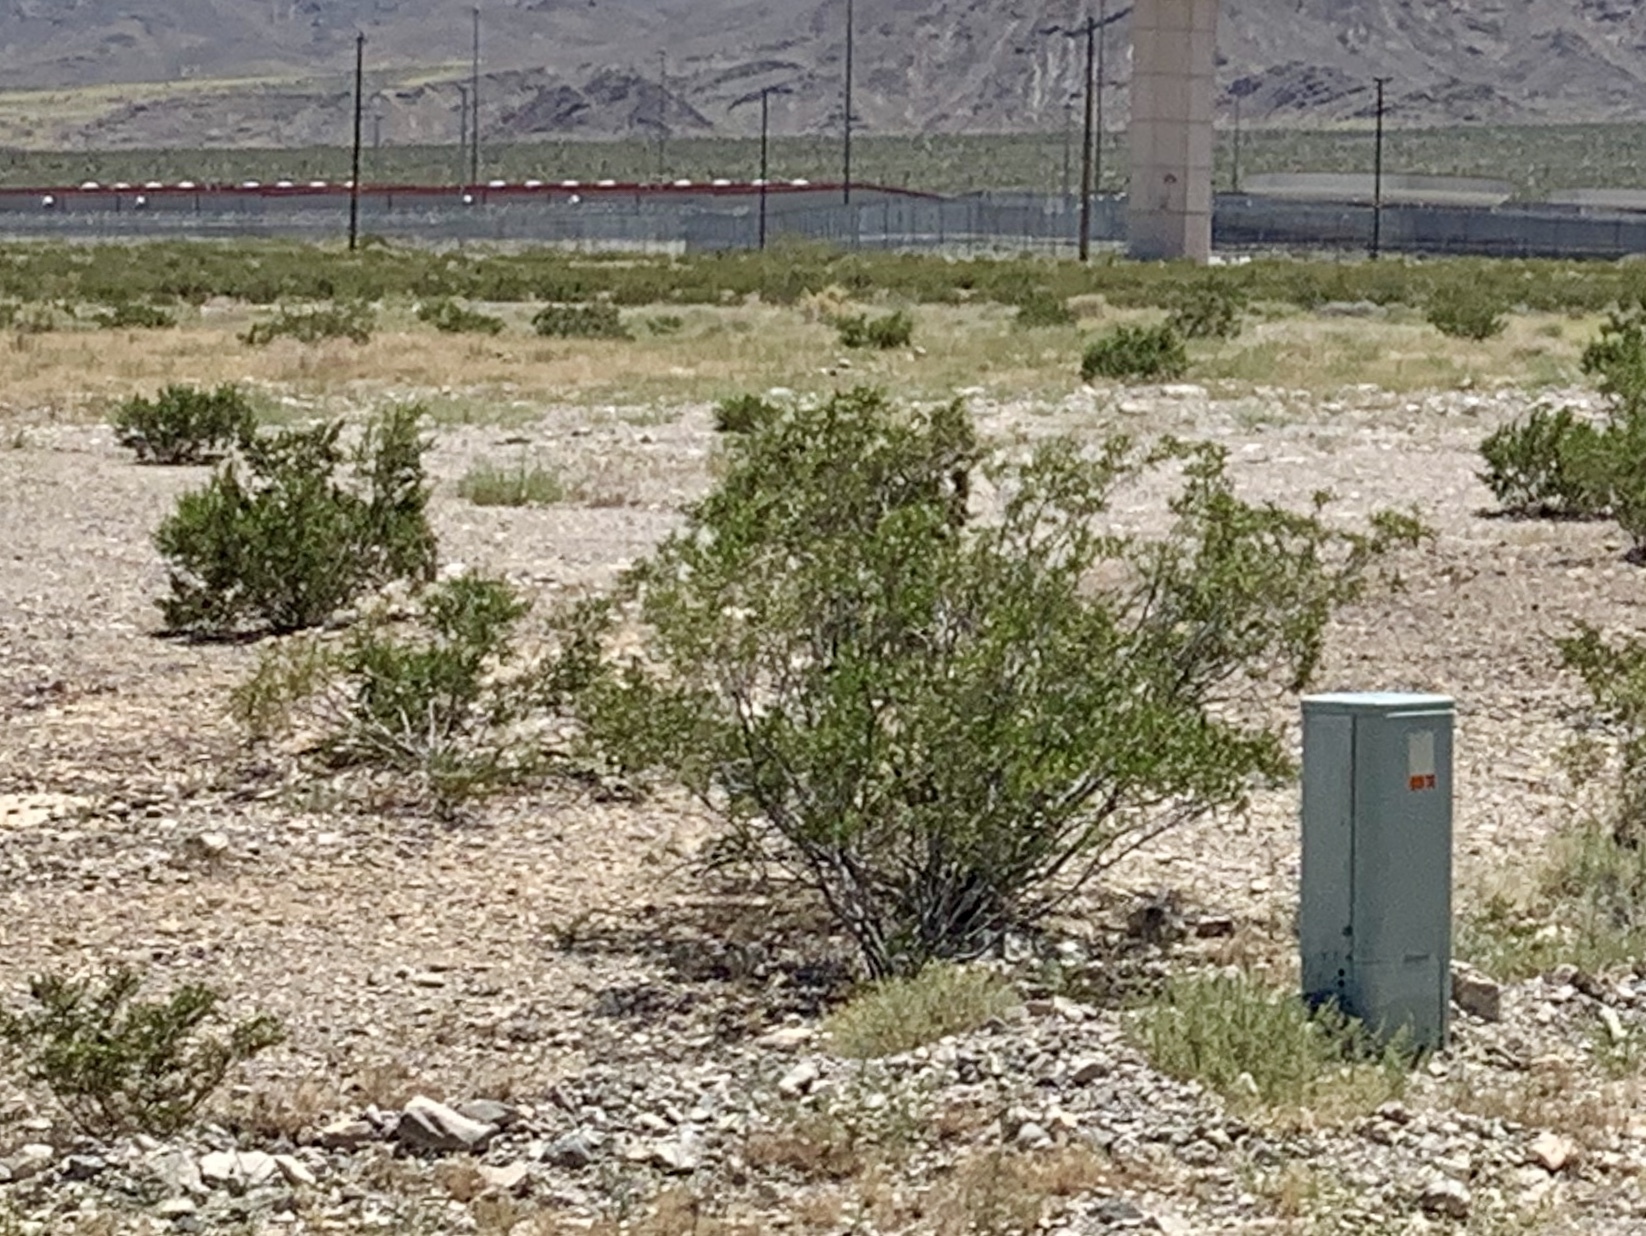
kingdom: Plantae
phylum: Tracheophyta
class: Magnoliopsida
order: Zygophyllales
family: Zygophyllaceae
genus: Larrea
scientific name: Larrea tridentata
